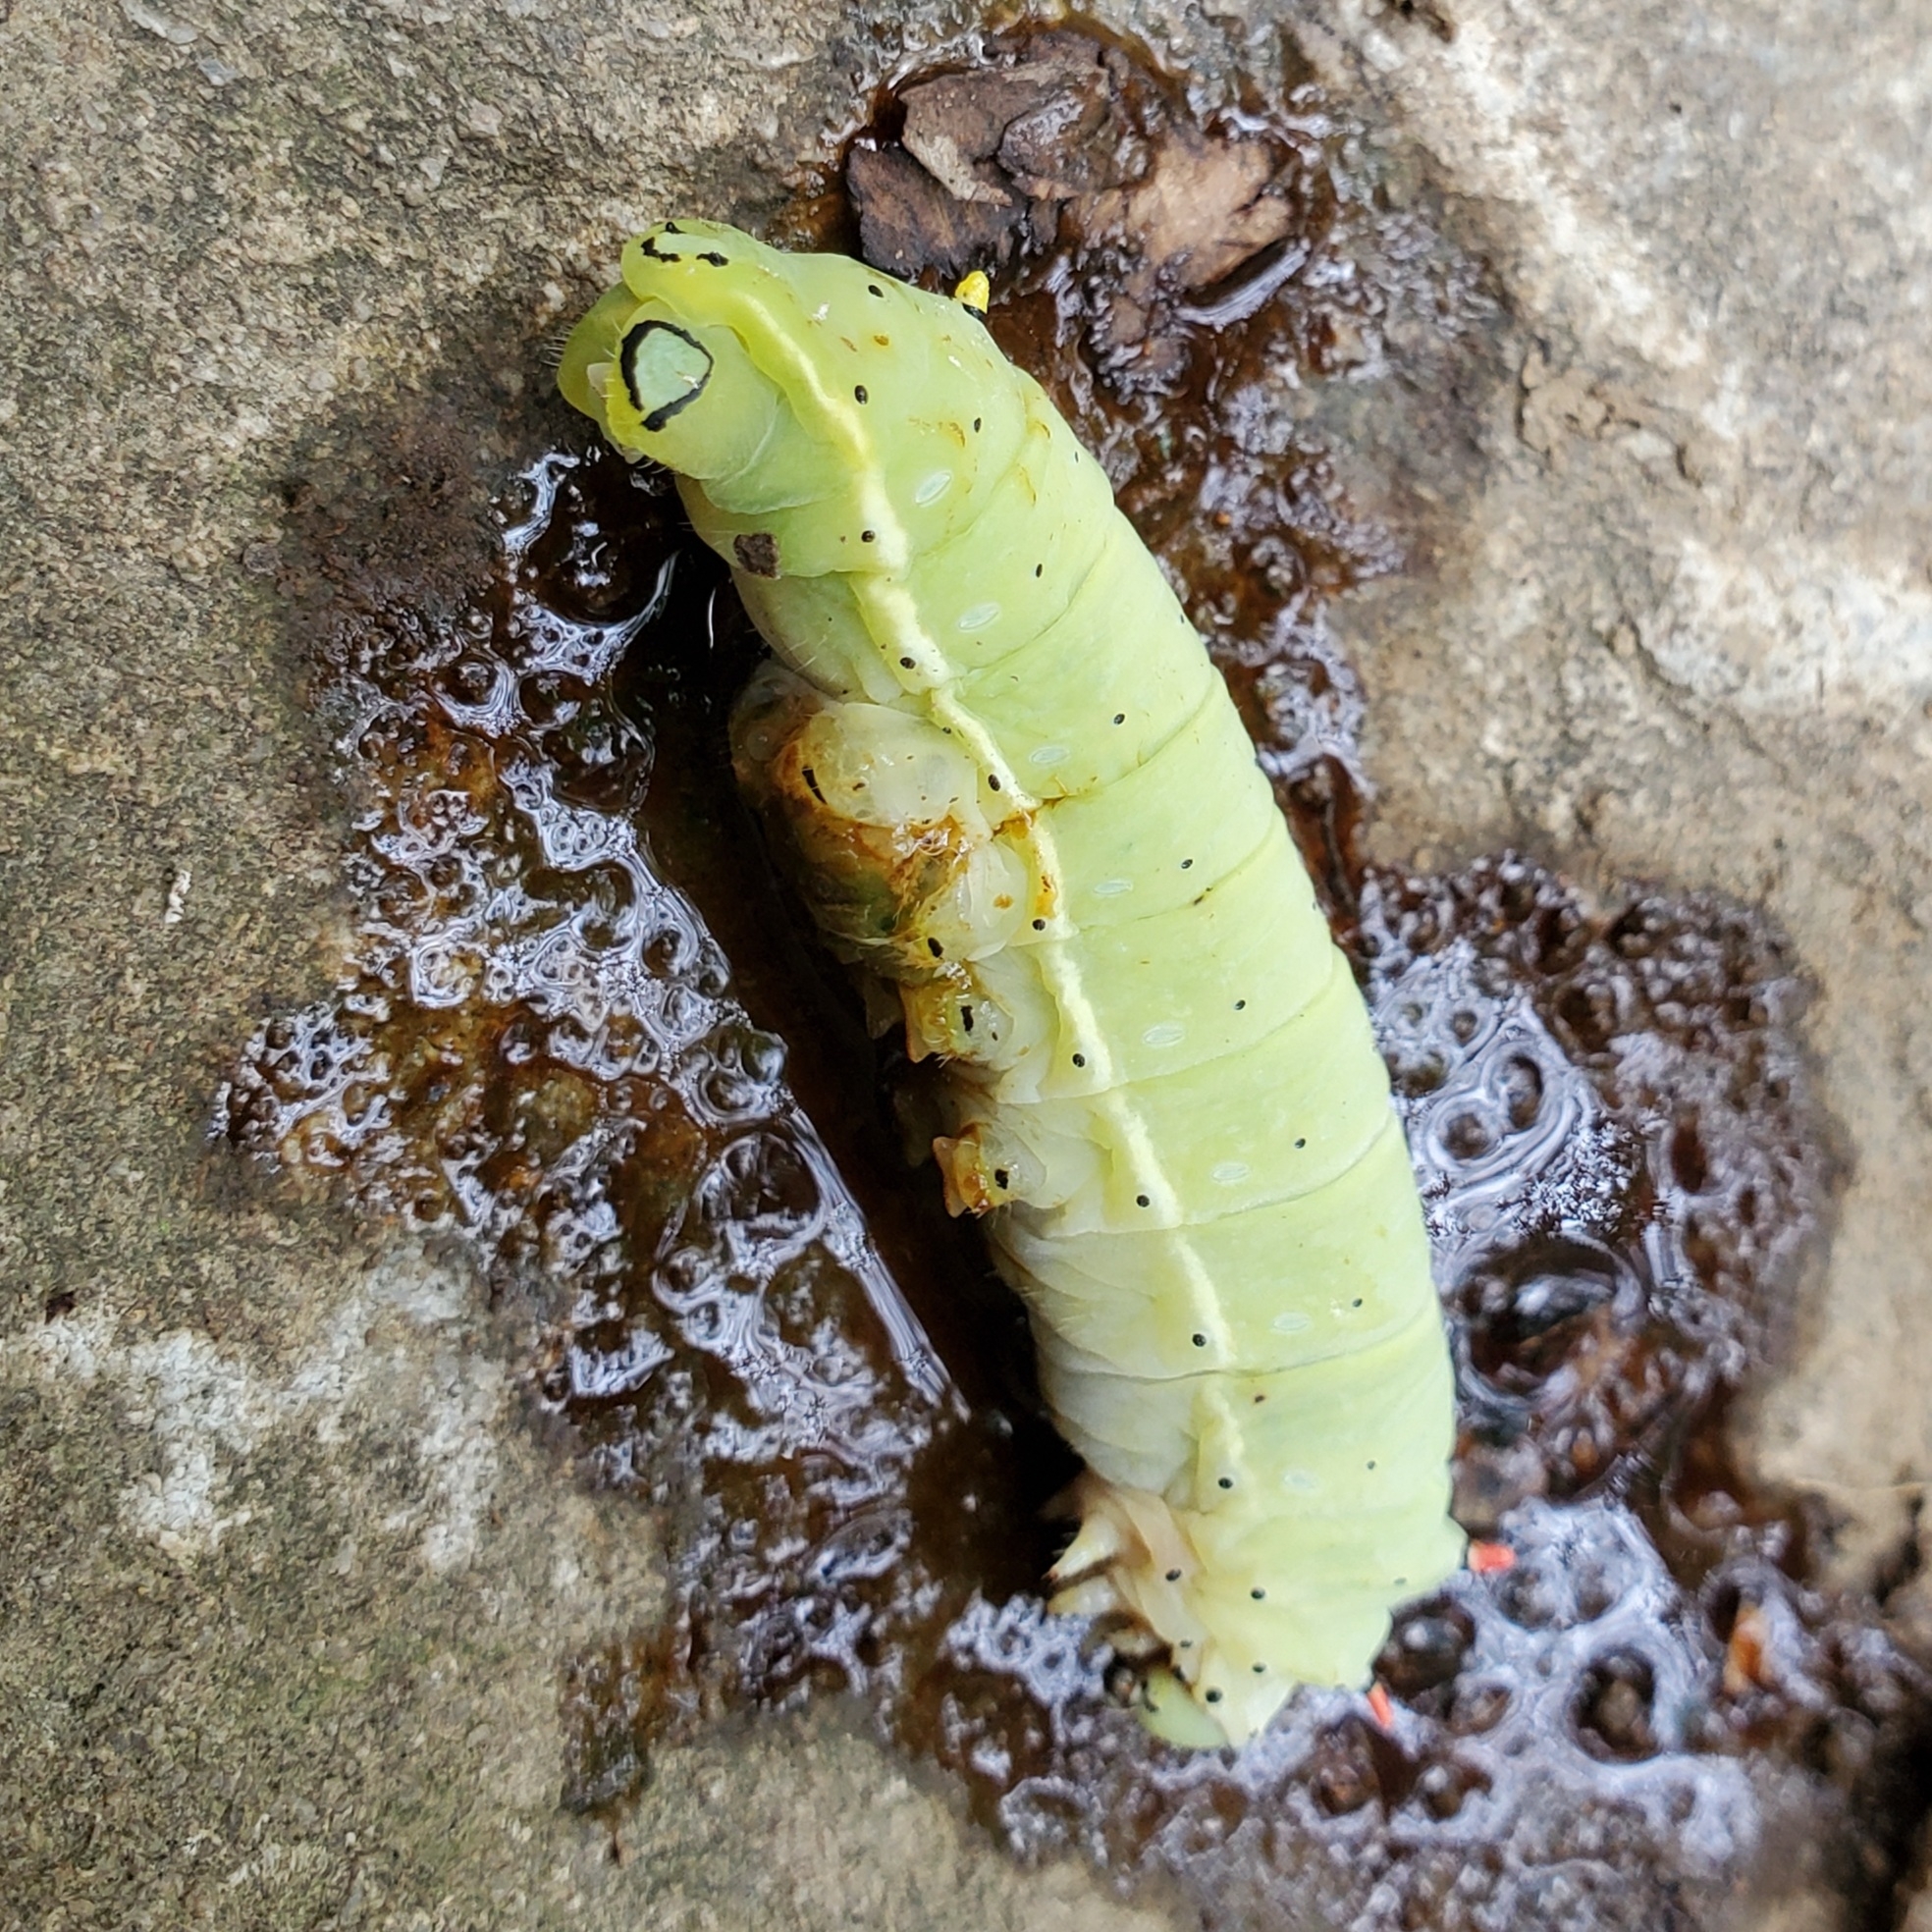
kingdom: Animalia
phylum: Arthropoda
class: Insecta
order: Lepidoptera
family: Saturniidae
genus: Callosamia
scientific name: Callosamia angulifera
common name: Tulip tree silkmoth
